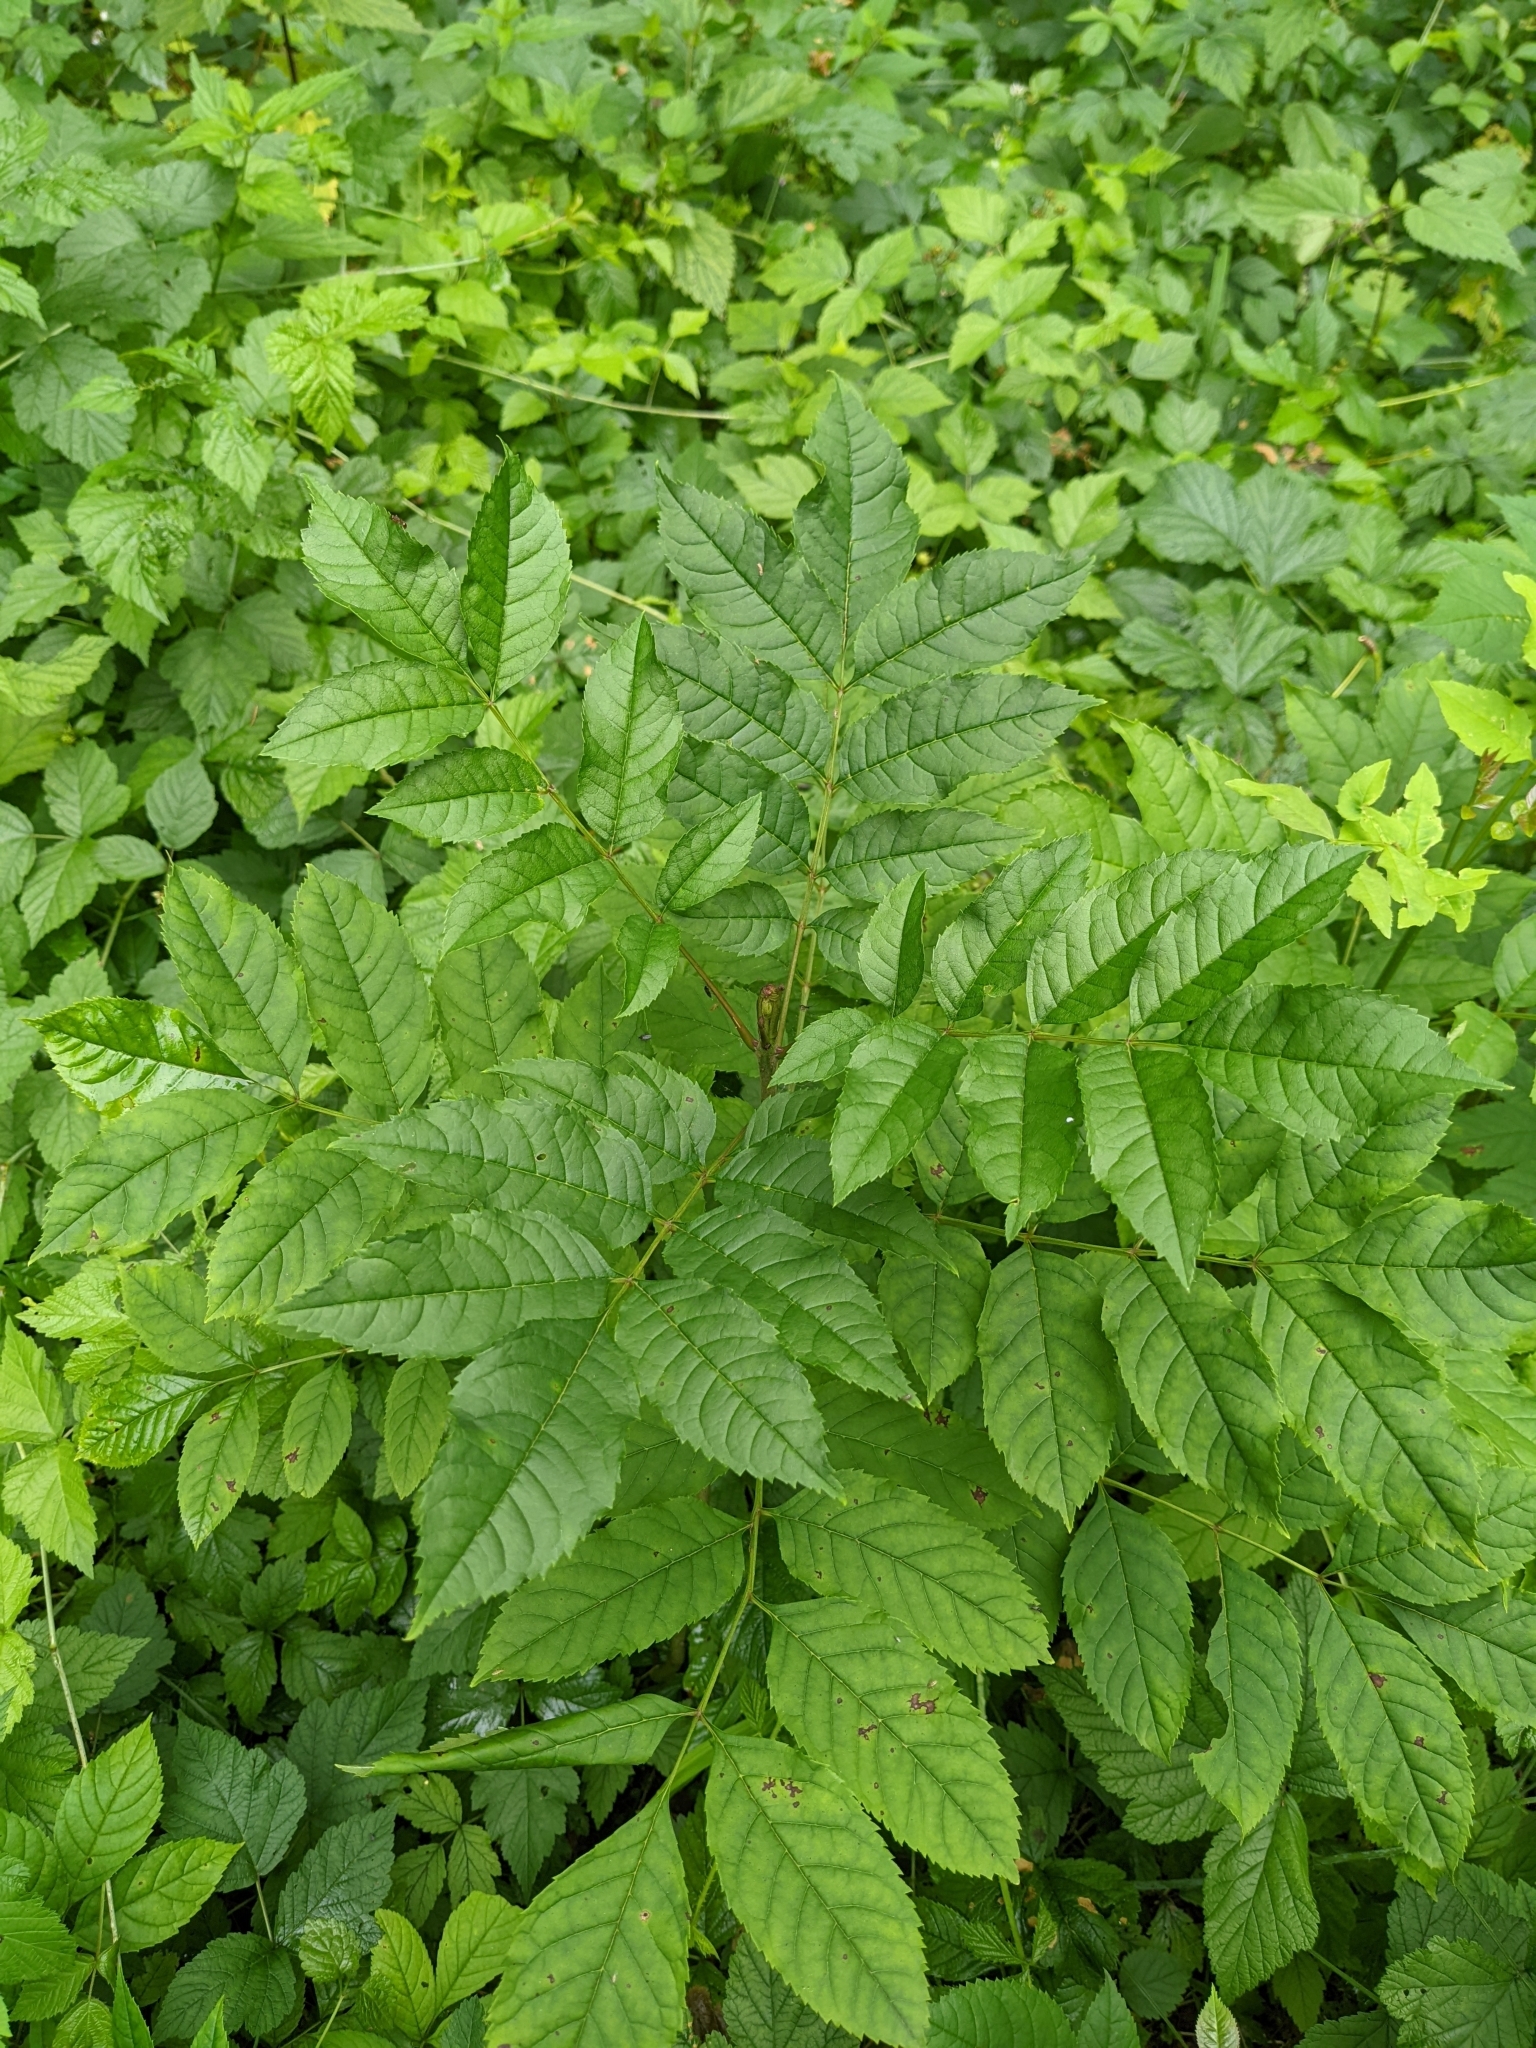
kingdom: Plantae
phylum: Tracheophyta
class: Magnoliopsida
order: Lamiales
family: Oleaceae
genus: Fraxinus
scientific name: Fraxinus excelsior
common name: European ash
